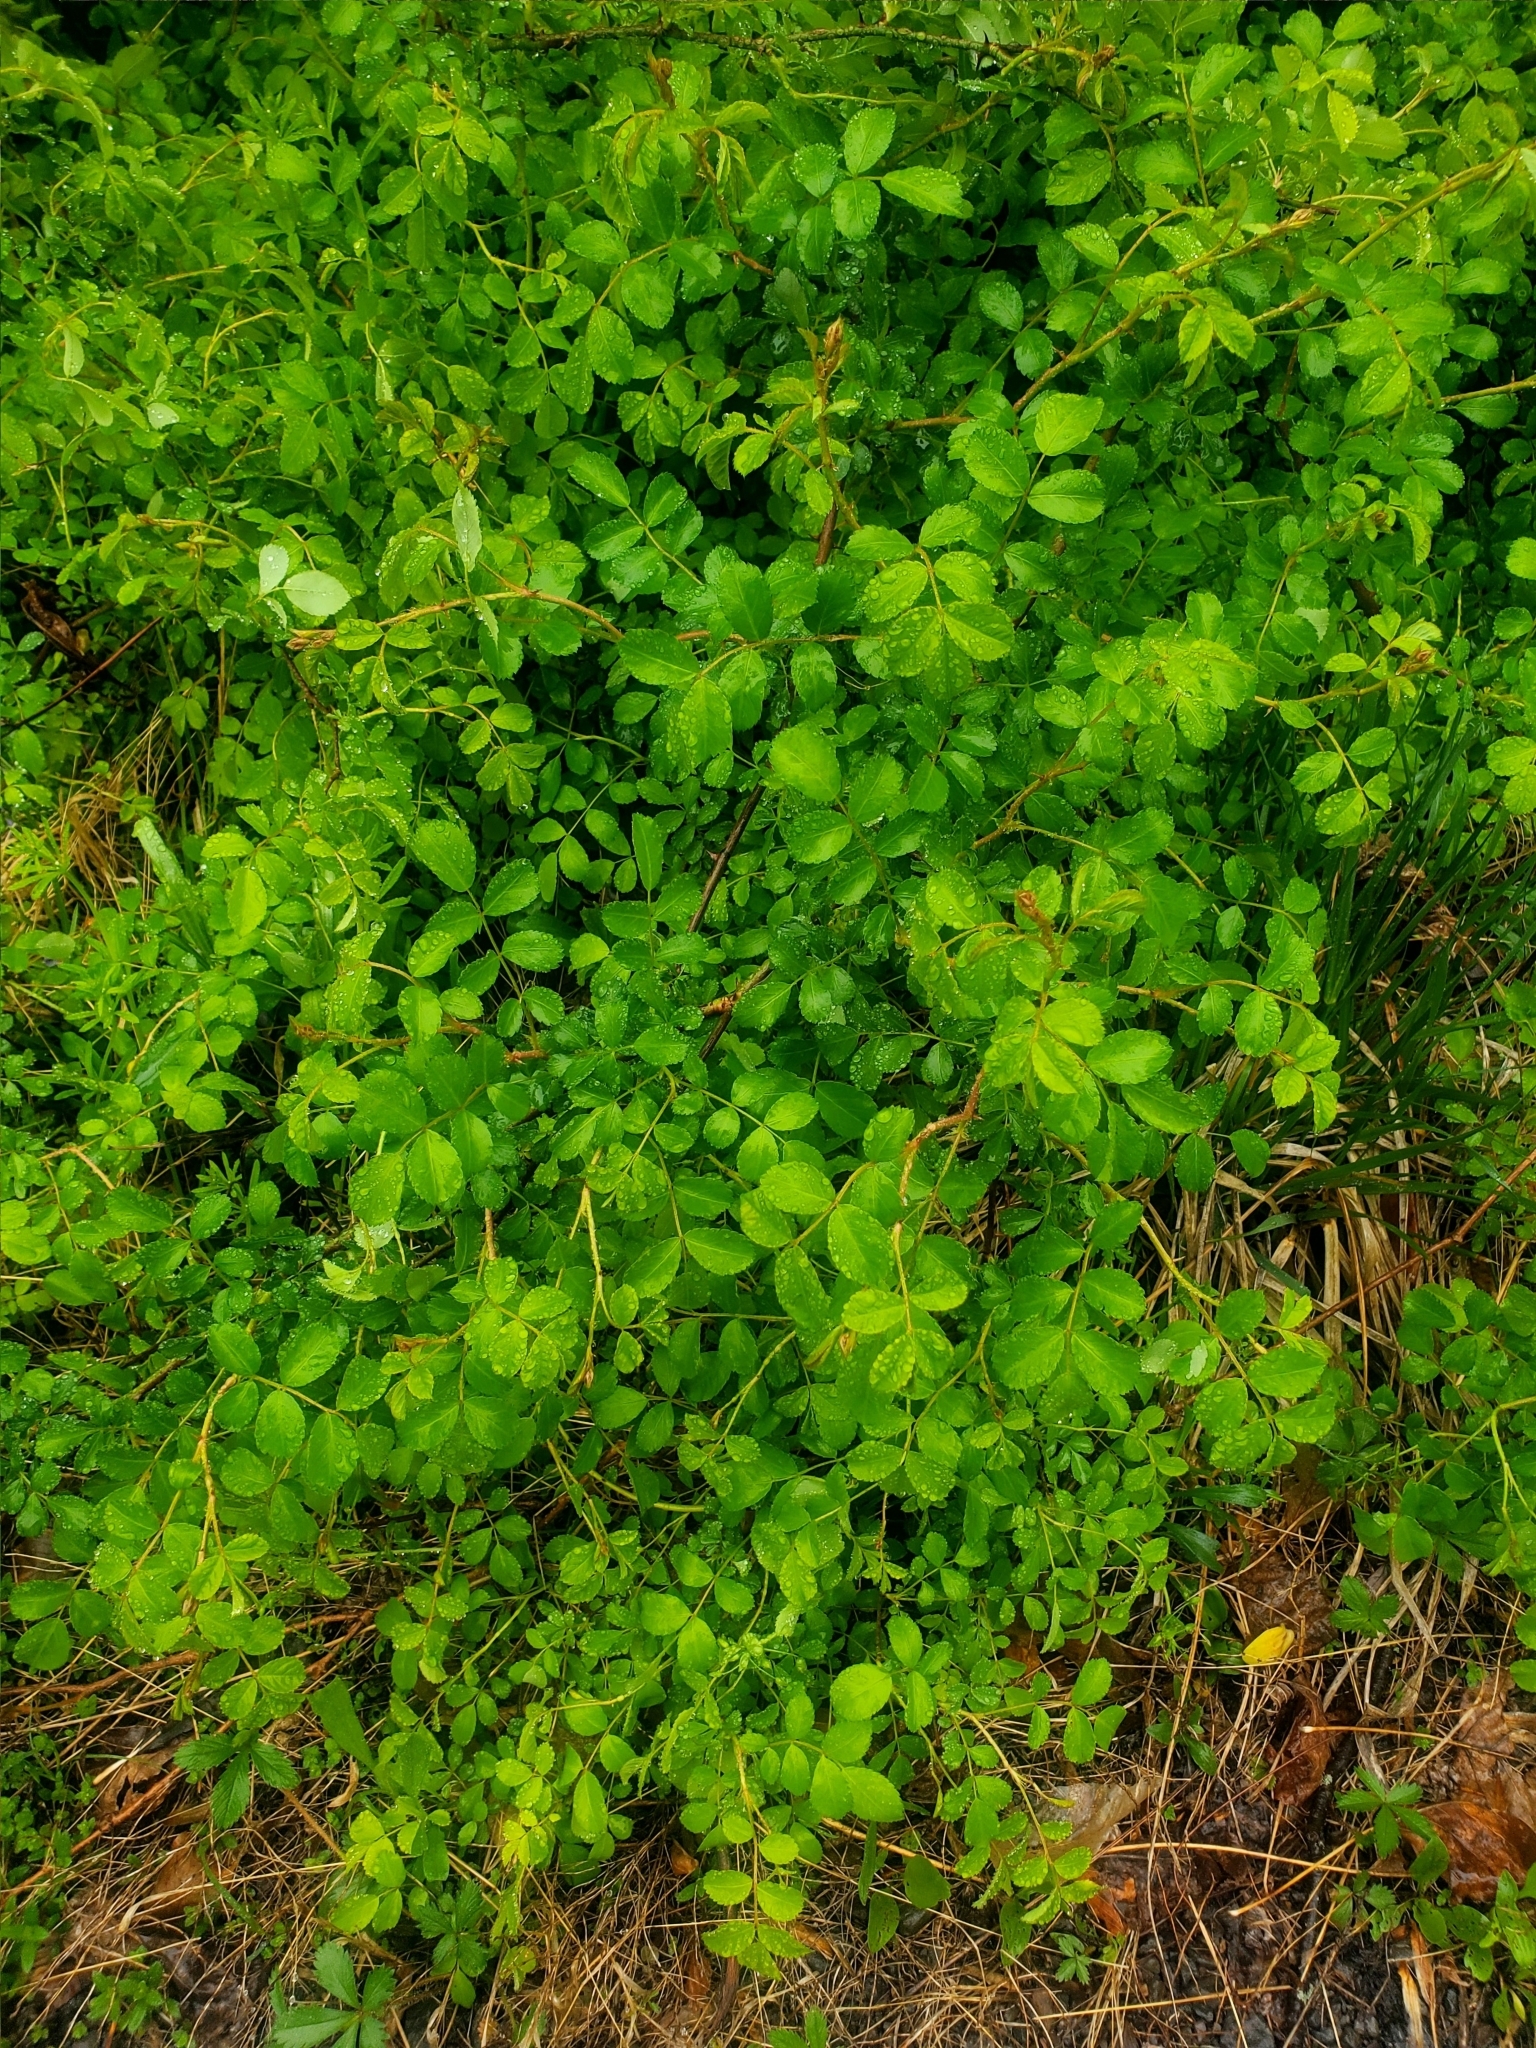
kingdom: Plantae
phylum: Tracheophyta
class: Magnoliopsida
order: Rosales
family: Rosaceae
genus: Rosa
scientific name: Rosa multiflora
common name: Multiflora rose
